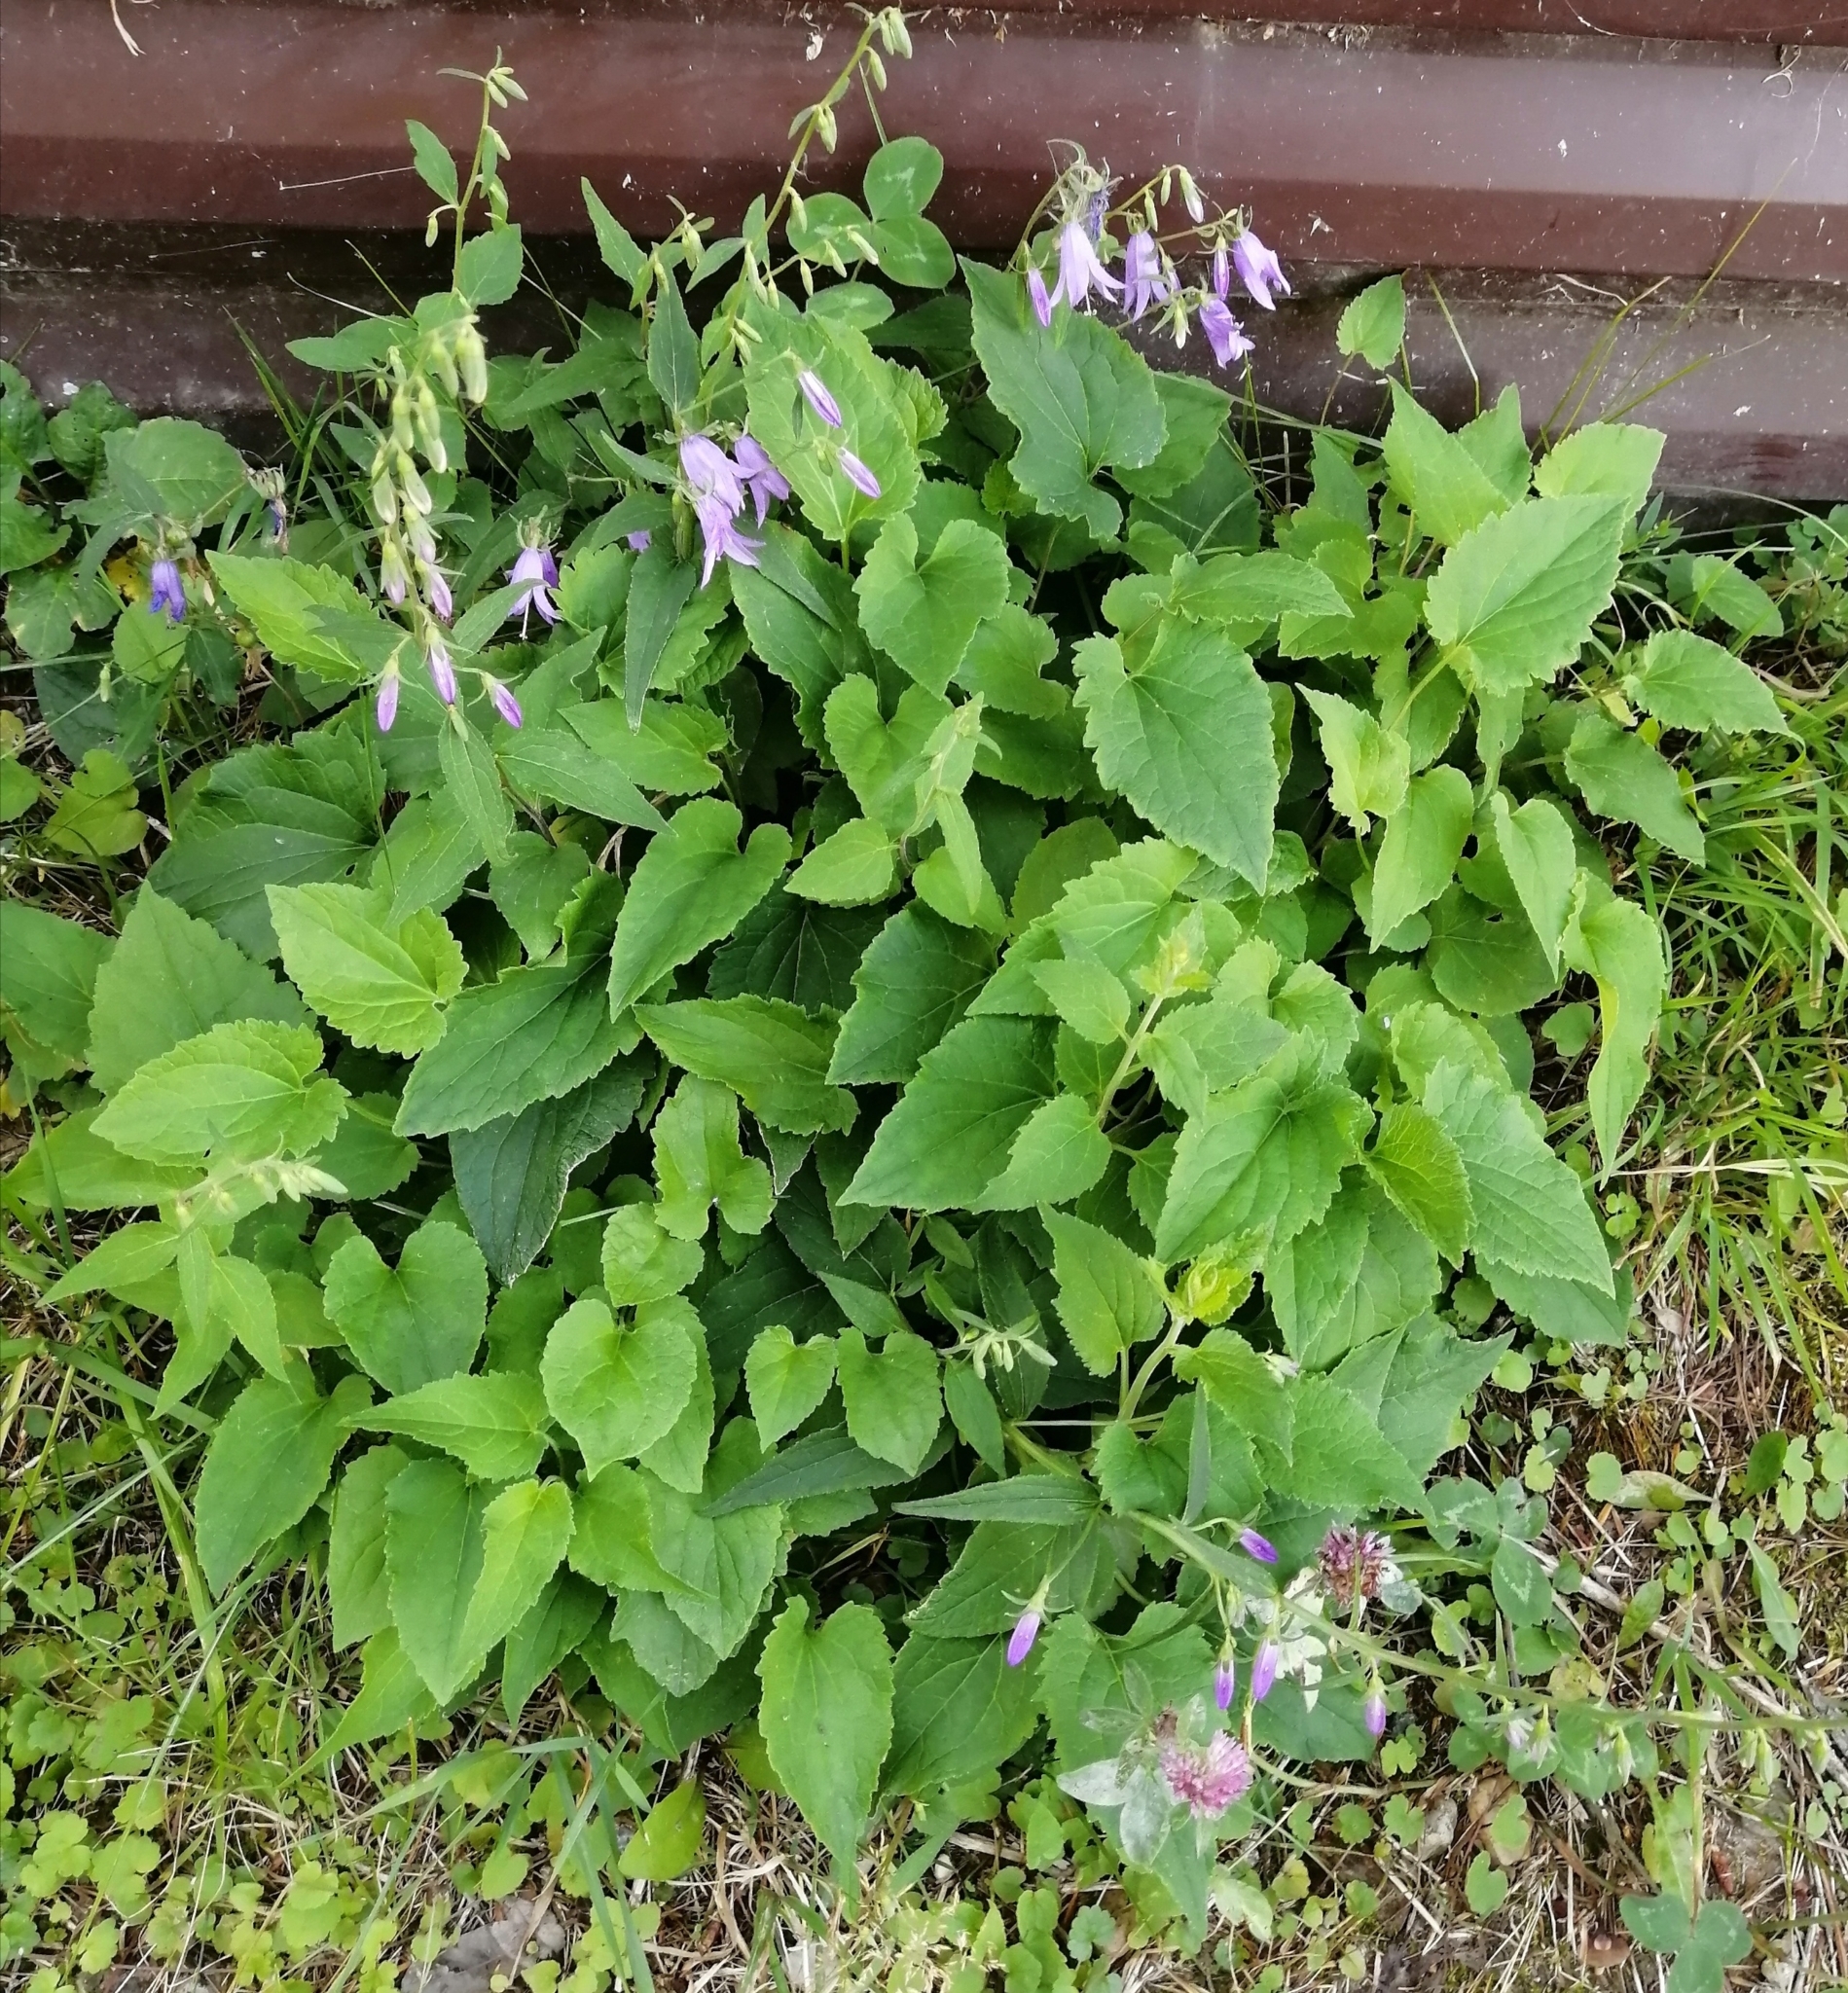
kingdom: Plantae
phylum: Tracheophyta
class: Magnoliopsida
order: Asterales
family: Campanulaceae
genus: Campanula
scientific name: Campanula rapunculoides
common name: Creeping bellflower
